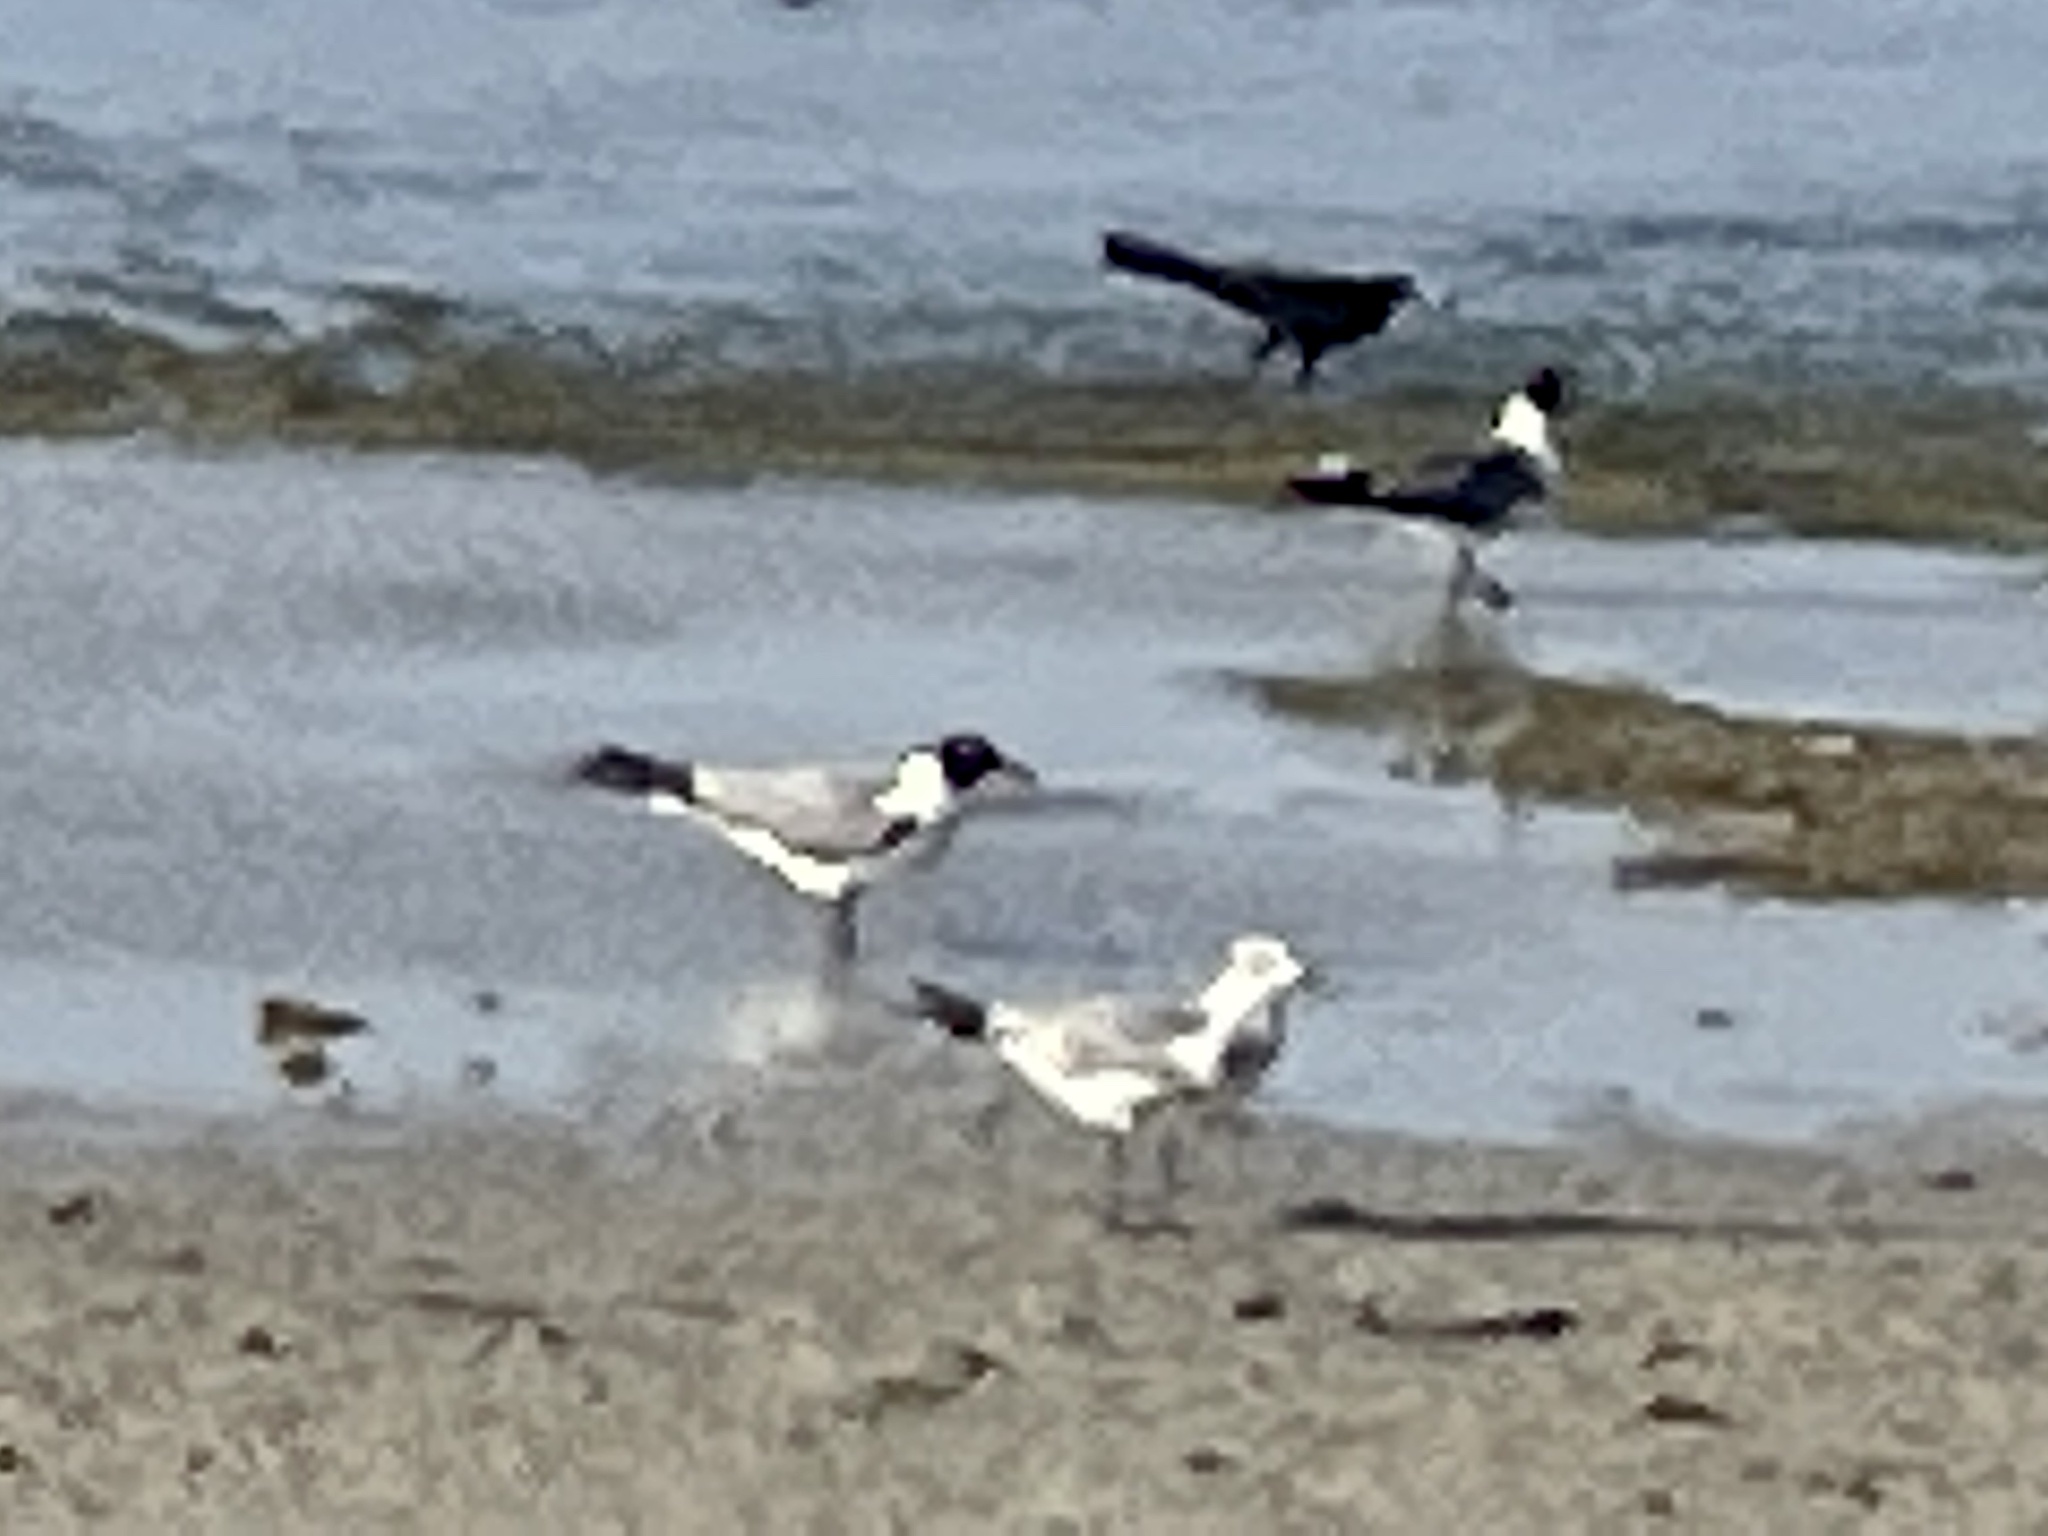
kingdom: Animalia
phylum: Chordata
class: Aves
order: Charadriiformes
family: Laridae
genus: Leucophaeus
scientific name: Leucophaeus atricilla
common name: Laughing gull
